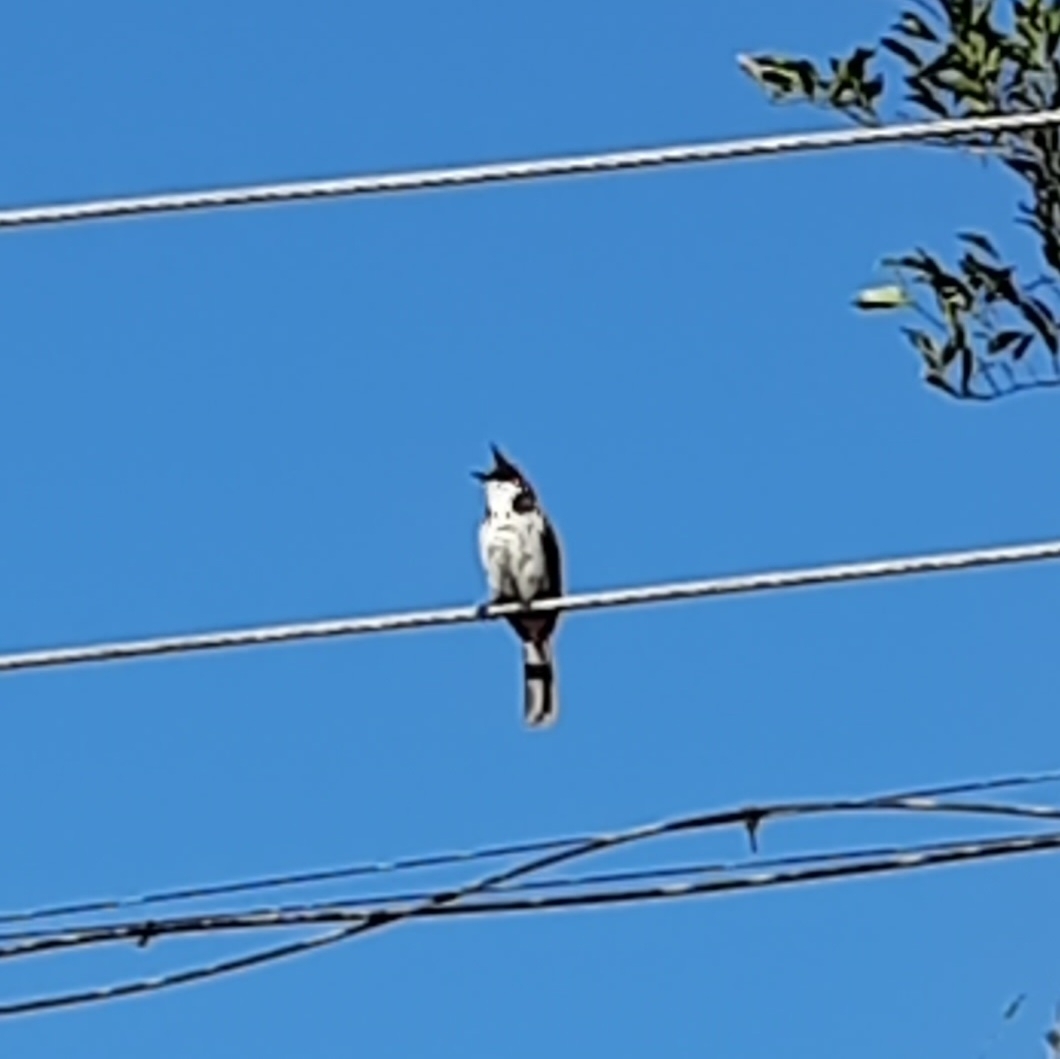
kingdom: Animalia
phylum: Chordata
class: Aves
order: Passeriformes
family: Pycnonotidae
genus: Pycnonotus
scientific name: Pycnonotus jocosus
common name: Red-whiskered bulbul
